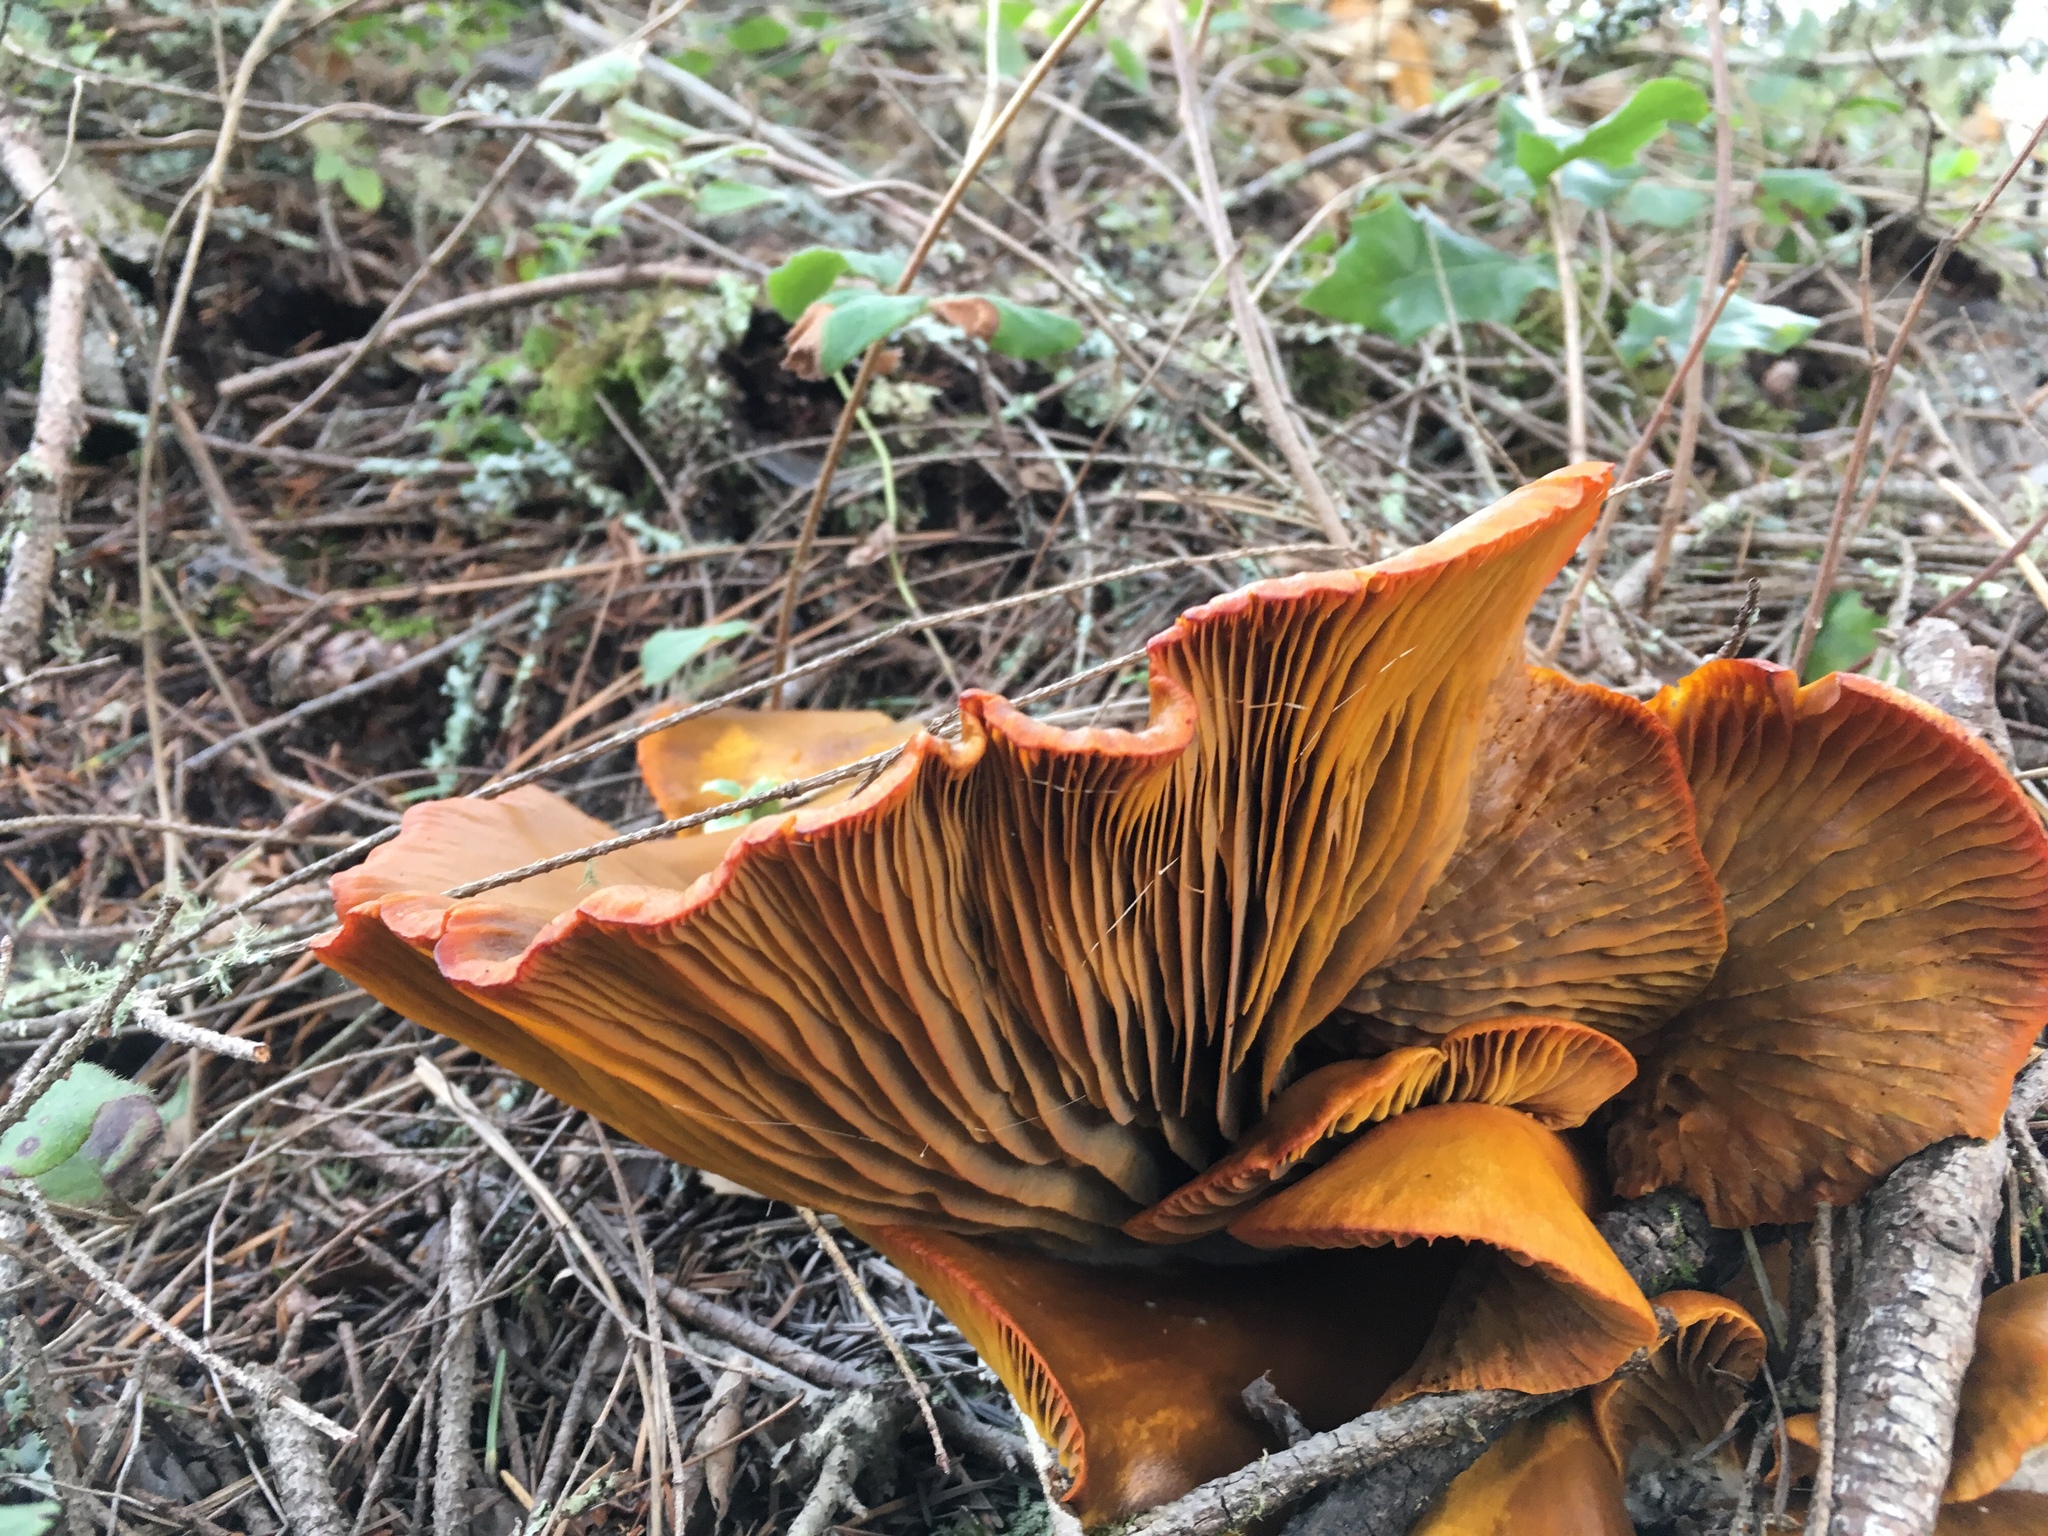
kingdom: Fungi
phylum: Basidiomycota
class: Agaricomycetes
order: Agaricales
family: Omphalotaceae
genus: Omphalotus
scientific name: Omphalotus olivascens
